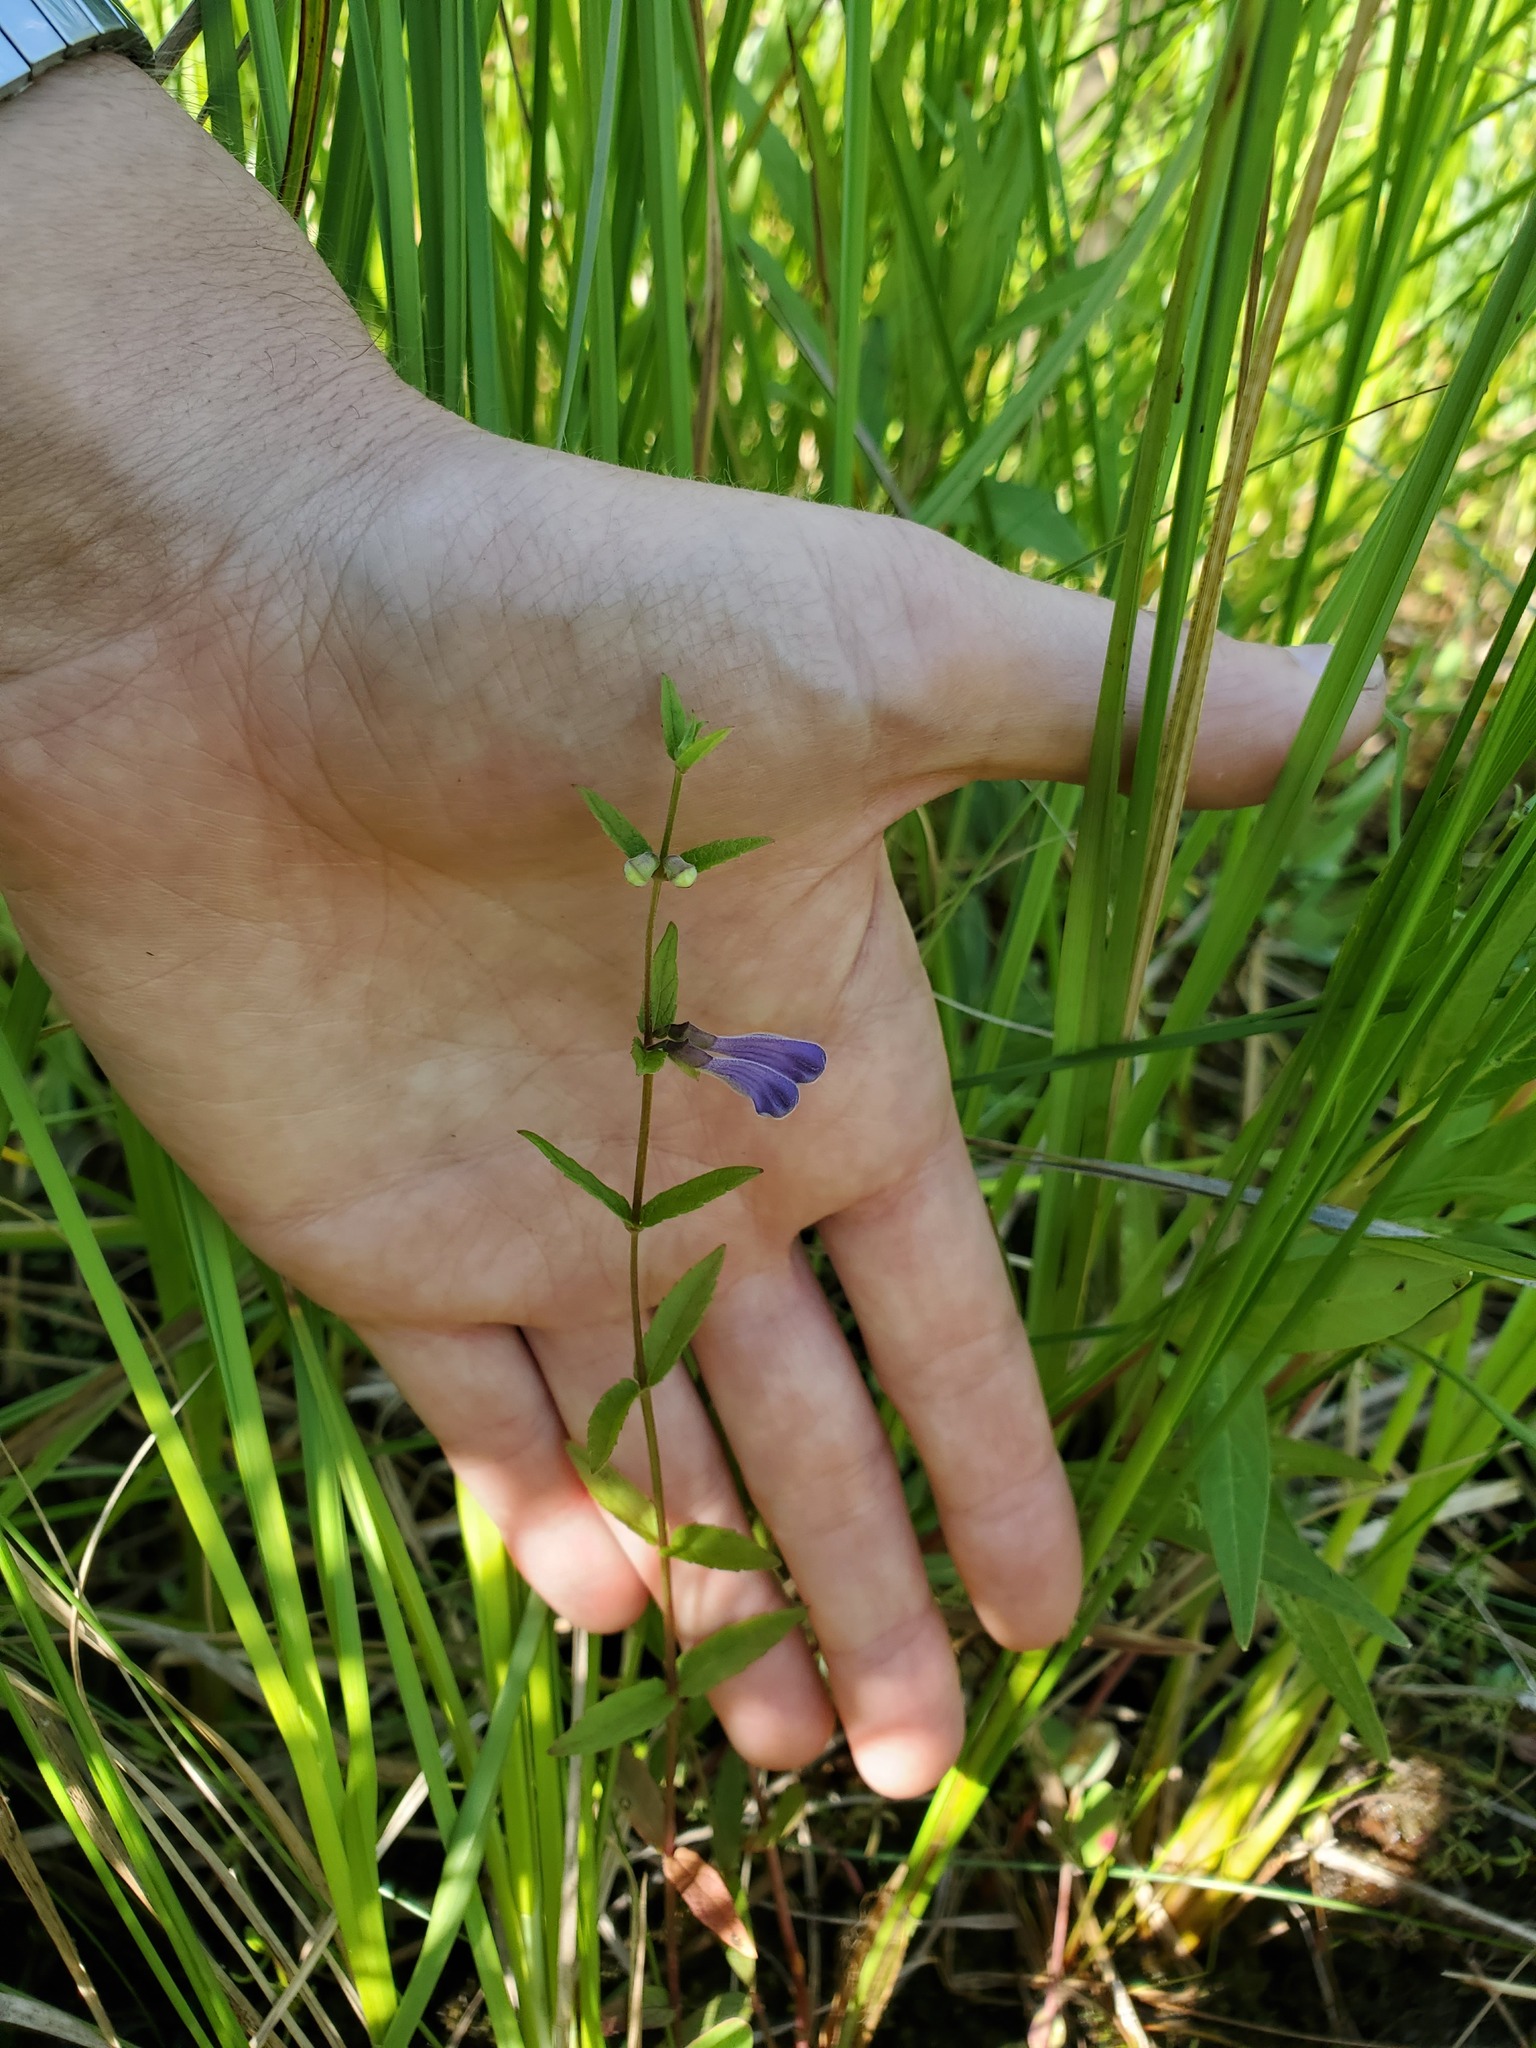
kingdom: Plantae
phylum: Tracheophyta
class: Magnoliopsida
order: Lamiales
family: Lamiaceae
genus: Scutellaria
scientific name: Scutellaria galericulata
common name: Skullcap
